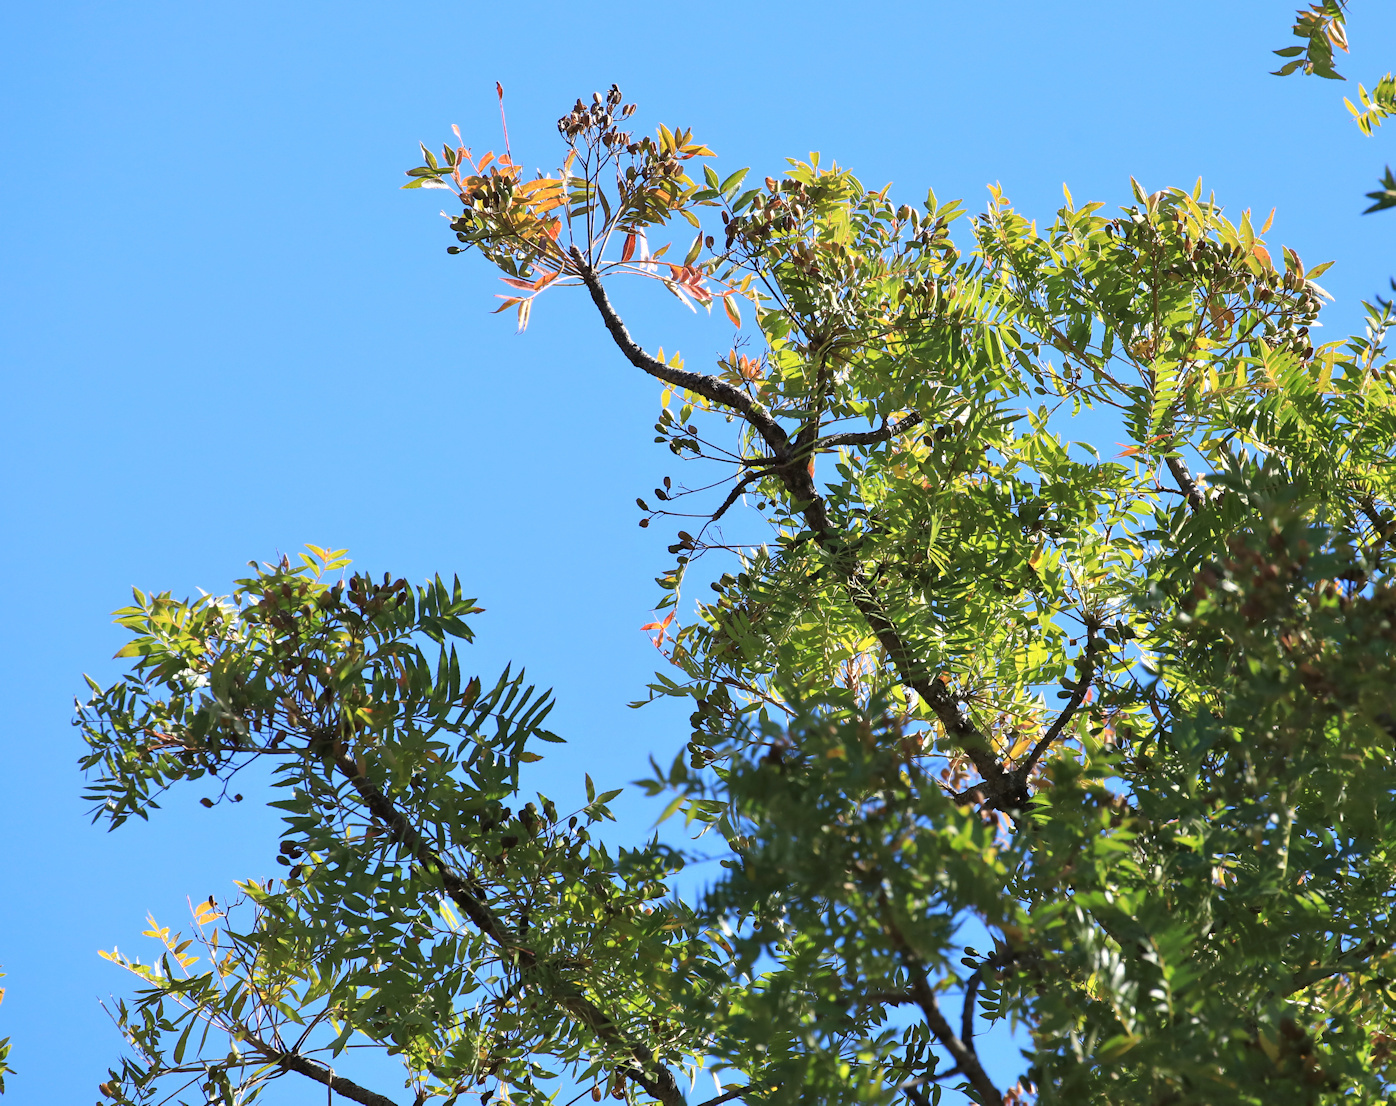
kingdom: Plantae
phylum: Tracheophyta
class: Magnoliopsida
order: Sapindales
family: Kirkiaceae
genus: Kirkia
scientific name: Kirkia wilmsii
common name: Mountain seringa
